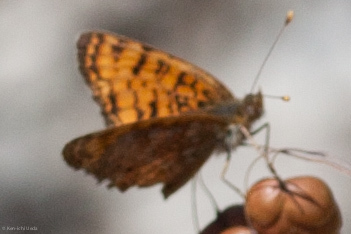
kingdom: Animalia
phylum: Arthropoda
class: Insecta
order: Lepidoptera
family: Nymphalidae
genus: Eresia
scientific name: Eresia aveyrona
